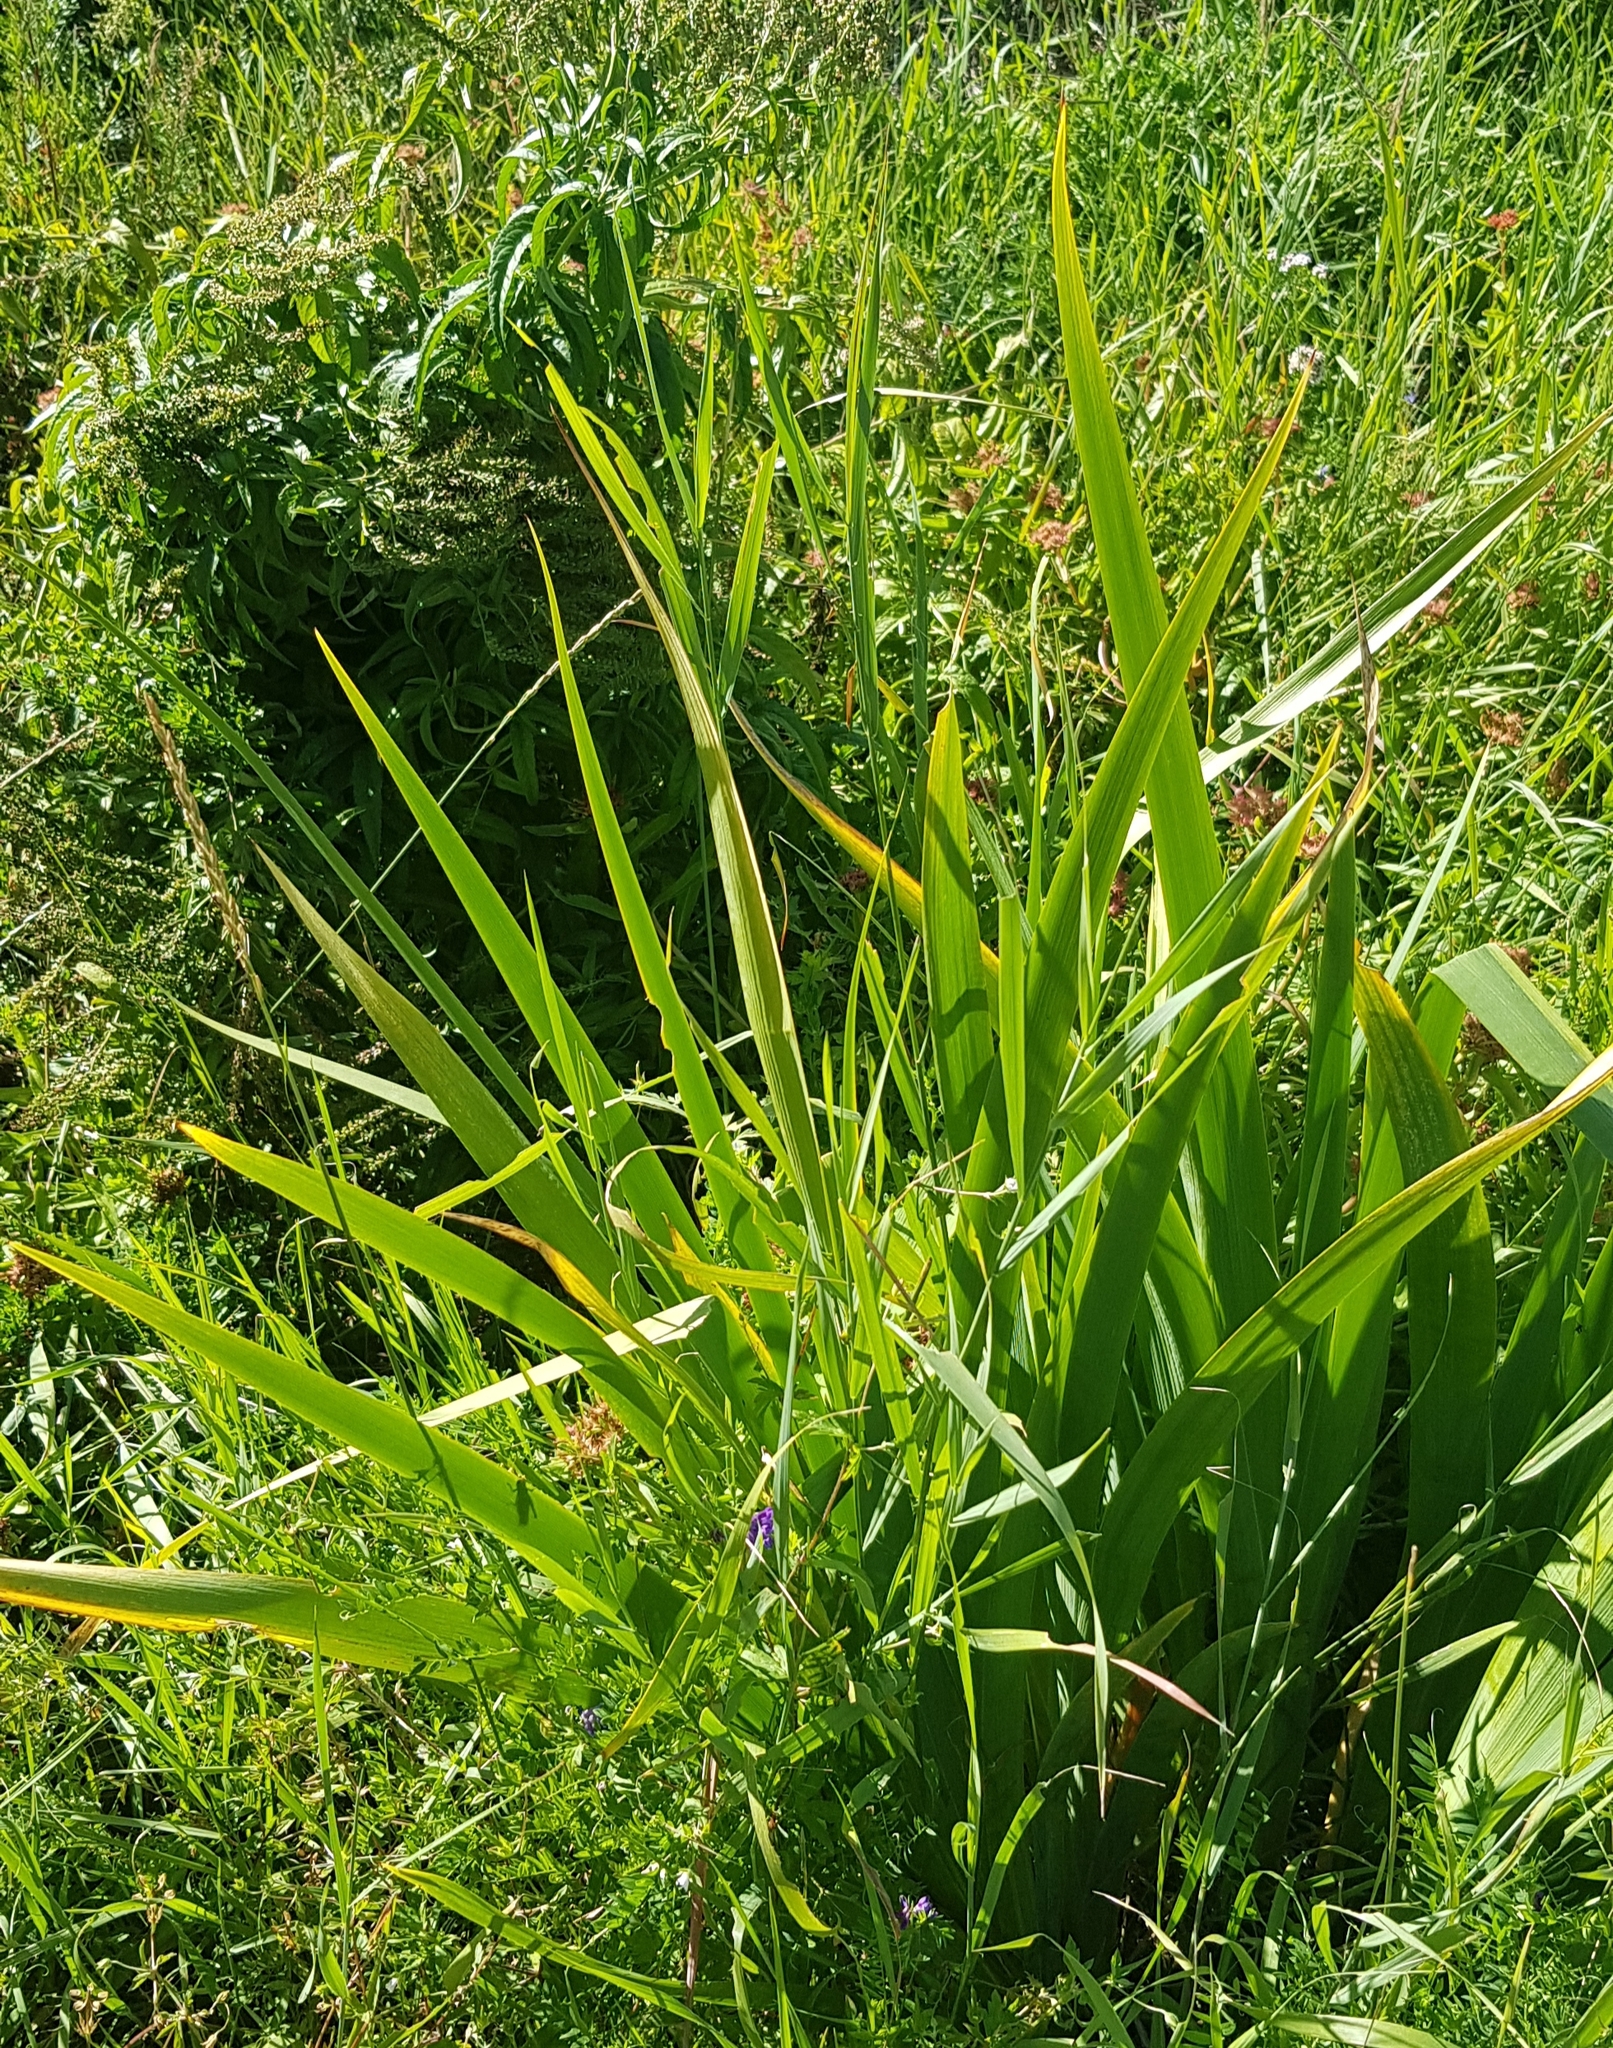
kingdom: Plantae
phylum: Tracheophyta
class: Liliopsida
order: Asparagales
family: Iridaceae
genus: Iris
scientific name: Iris dichotoma
